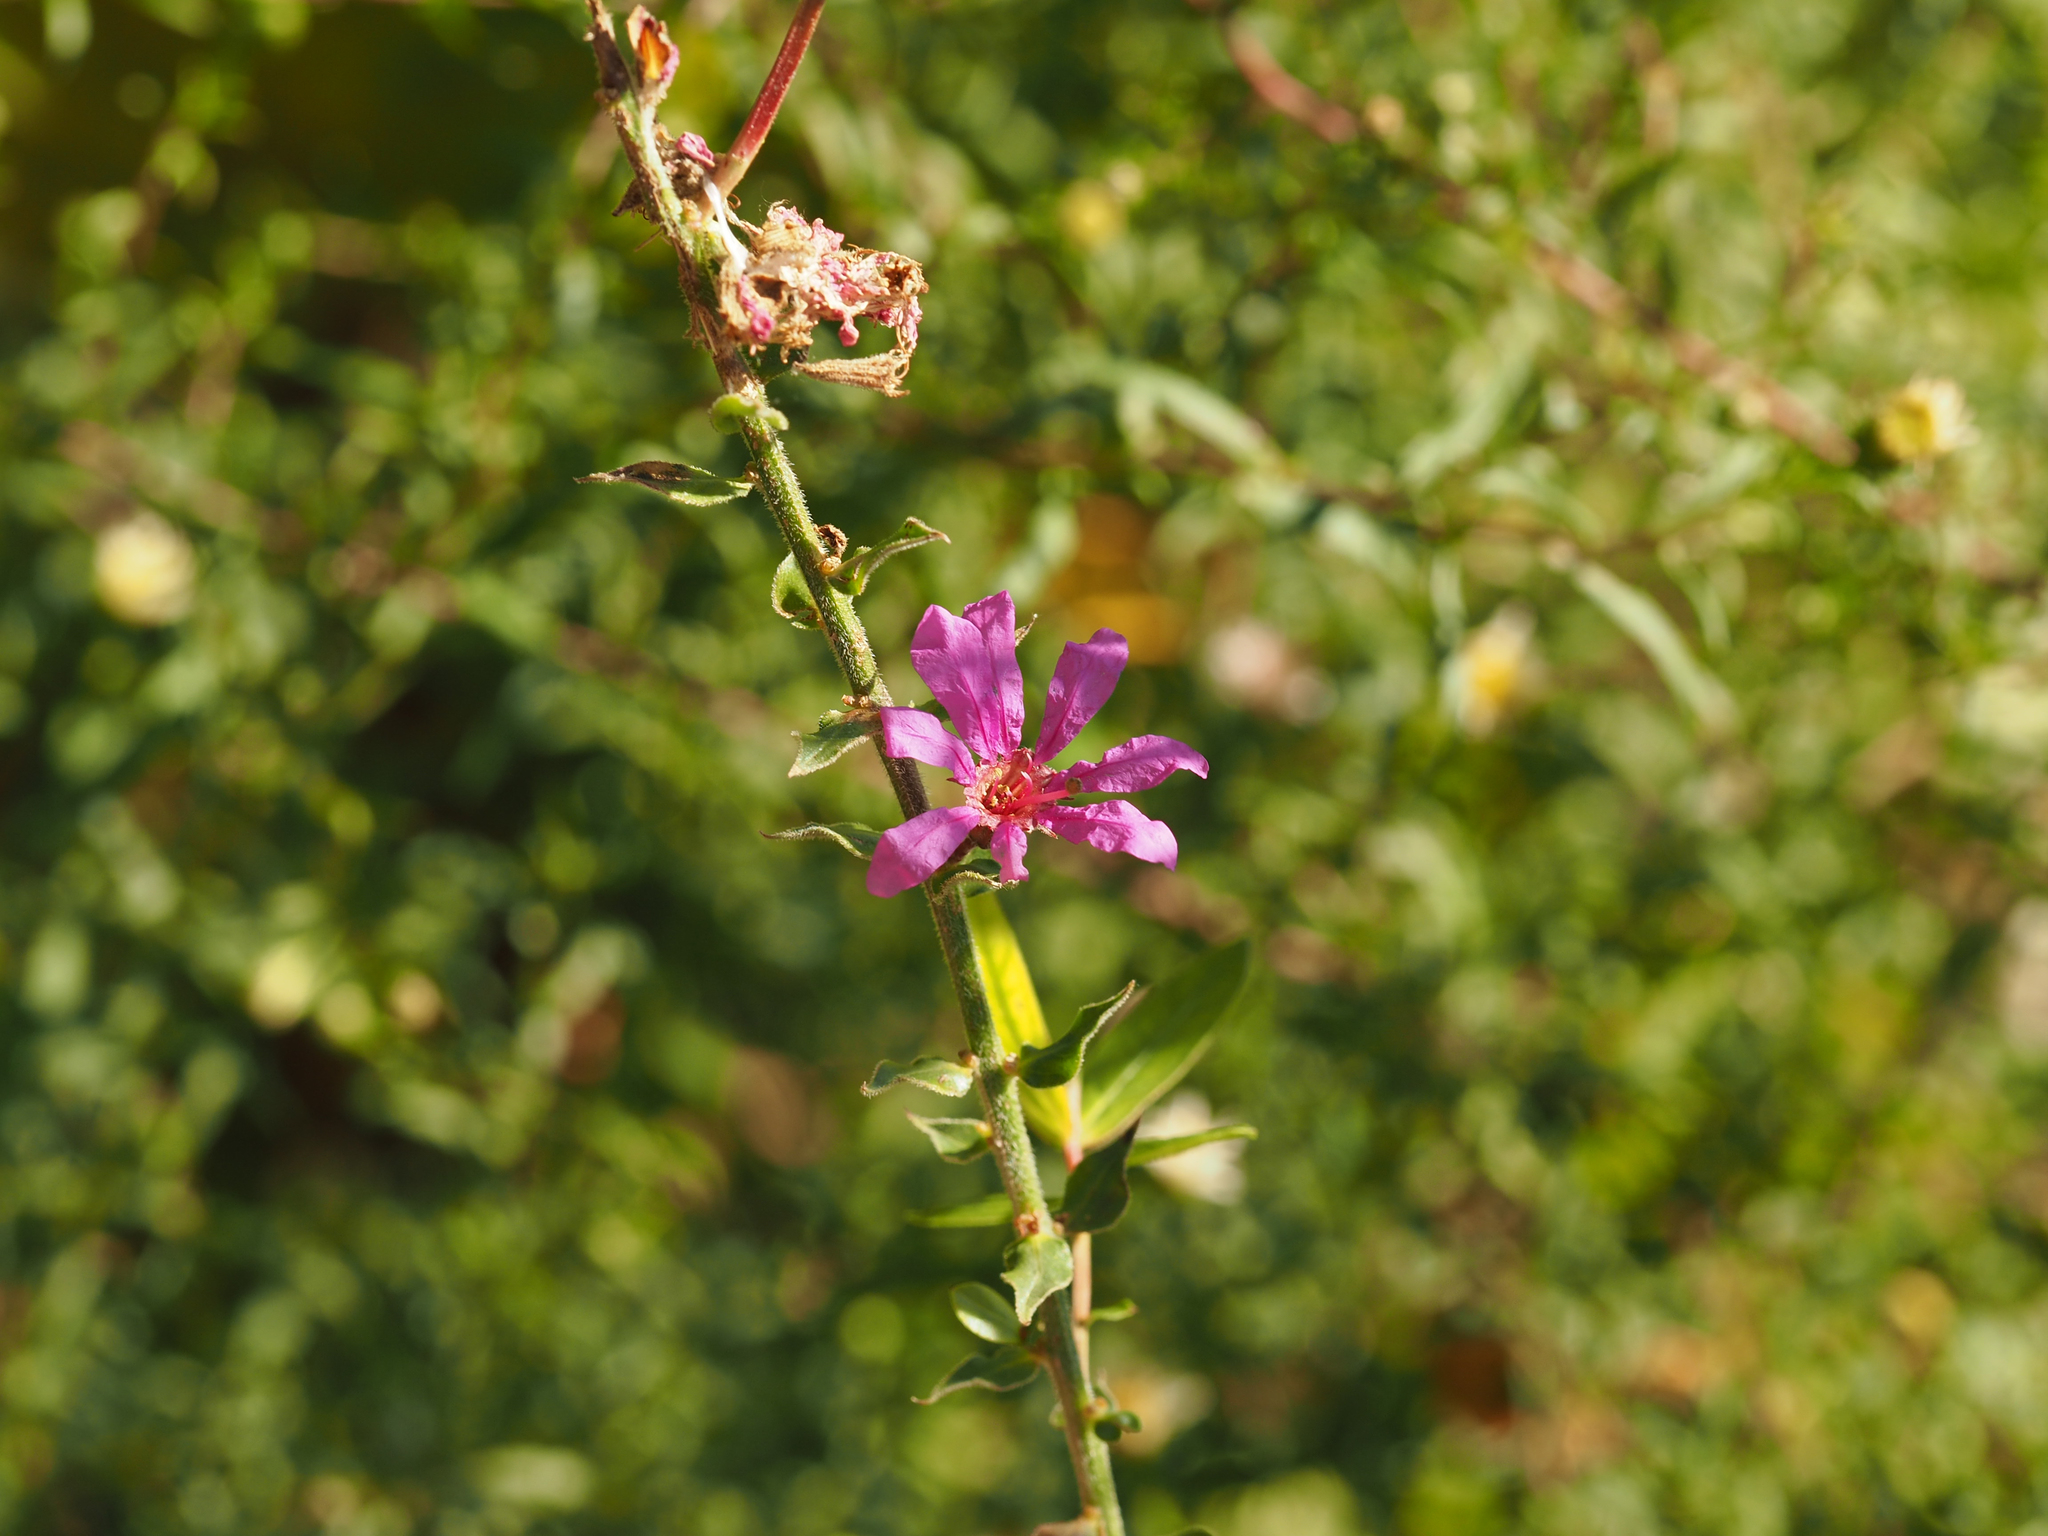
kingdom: Plantae
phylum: Tracheophyta
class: Magnoliopsida
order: Myrtales
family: Lythraceae
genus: Lythrum
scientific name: Lythrum salicaria
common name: Purple loosestrife
